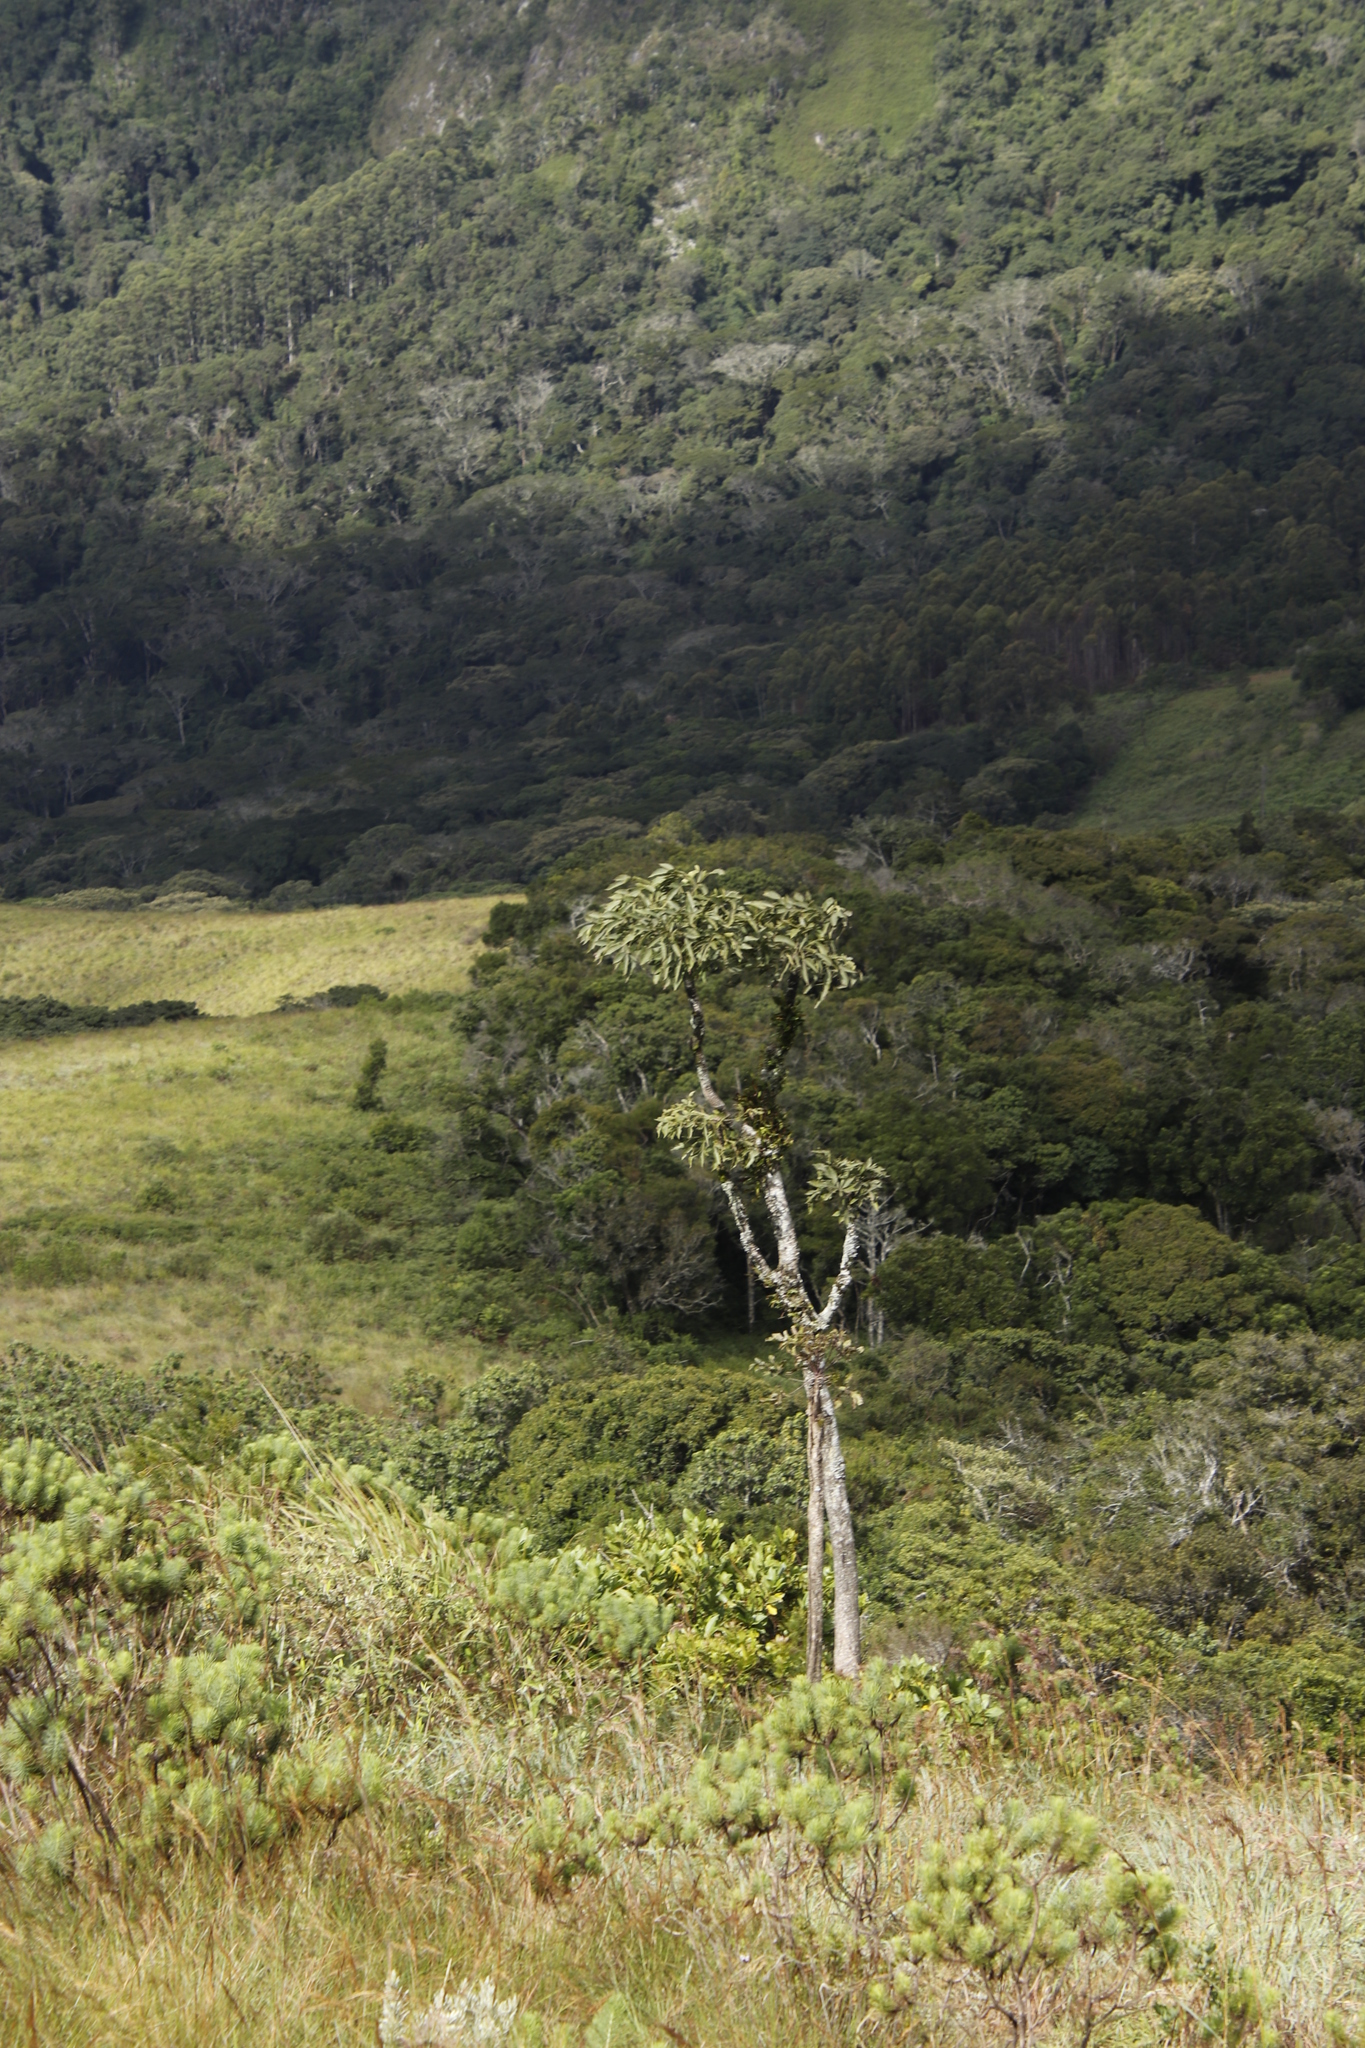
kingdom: Plantae
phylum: Tracheophyta
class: Magnoliopsida
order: Apiales
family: Araliaceae
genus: Cussonia
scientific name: Cussonia spicata
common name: Common cabbagetree
